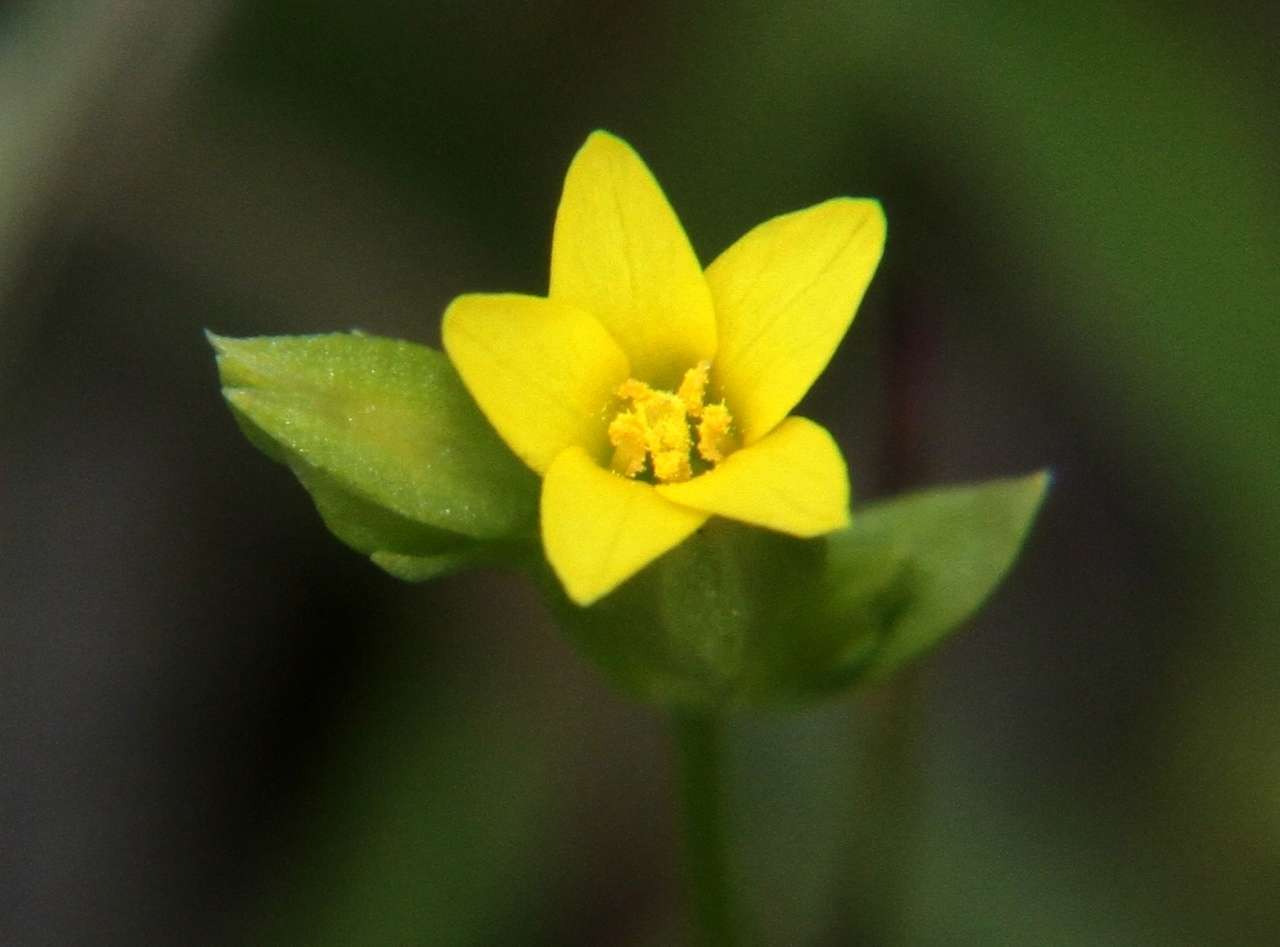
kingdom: Plantae
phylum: Tracheophyta
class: Magnoliopsida
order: Gentianales
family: Gentianaceae
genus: Sebaea
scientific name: Sebaea ovata
